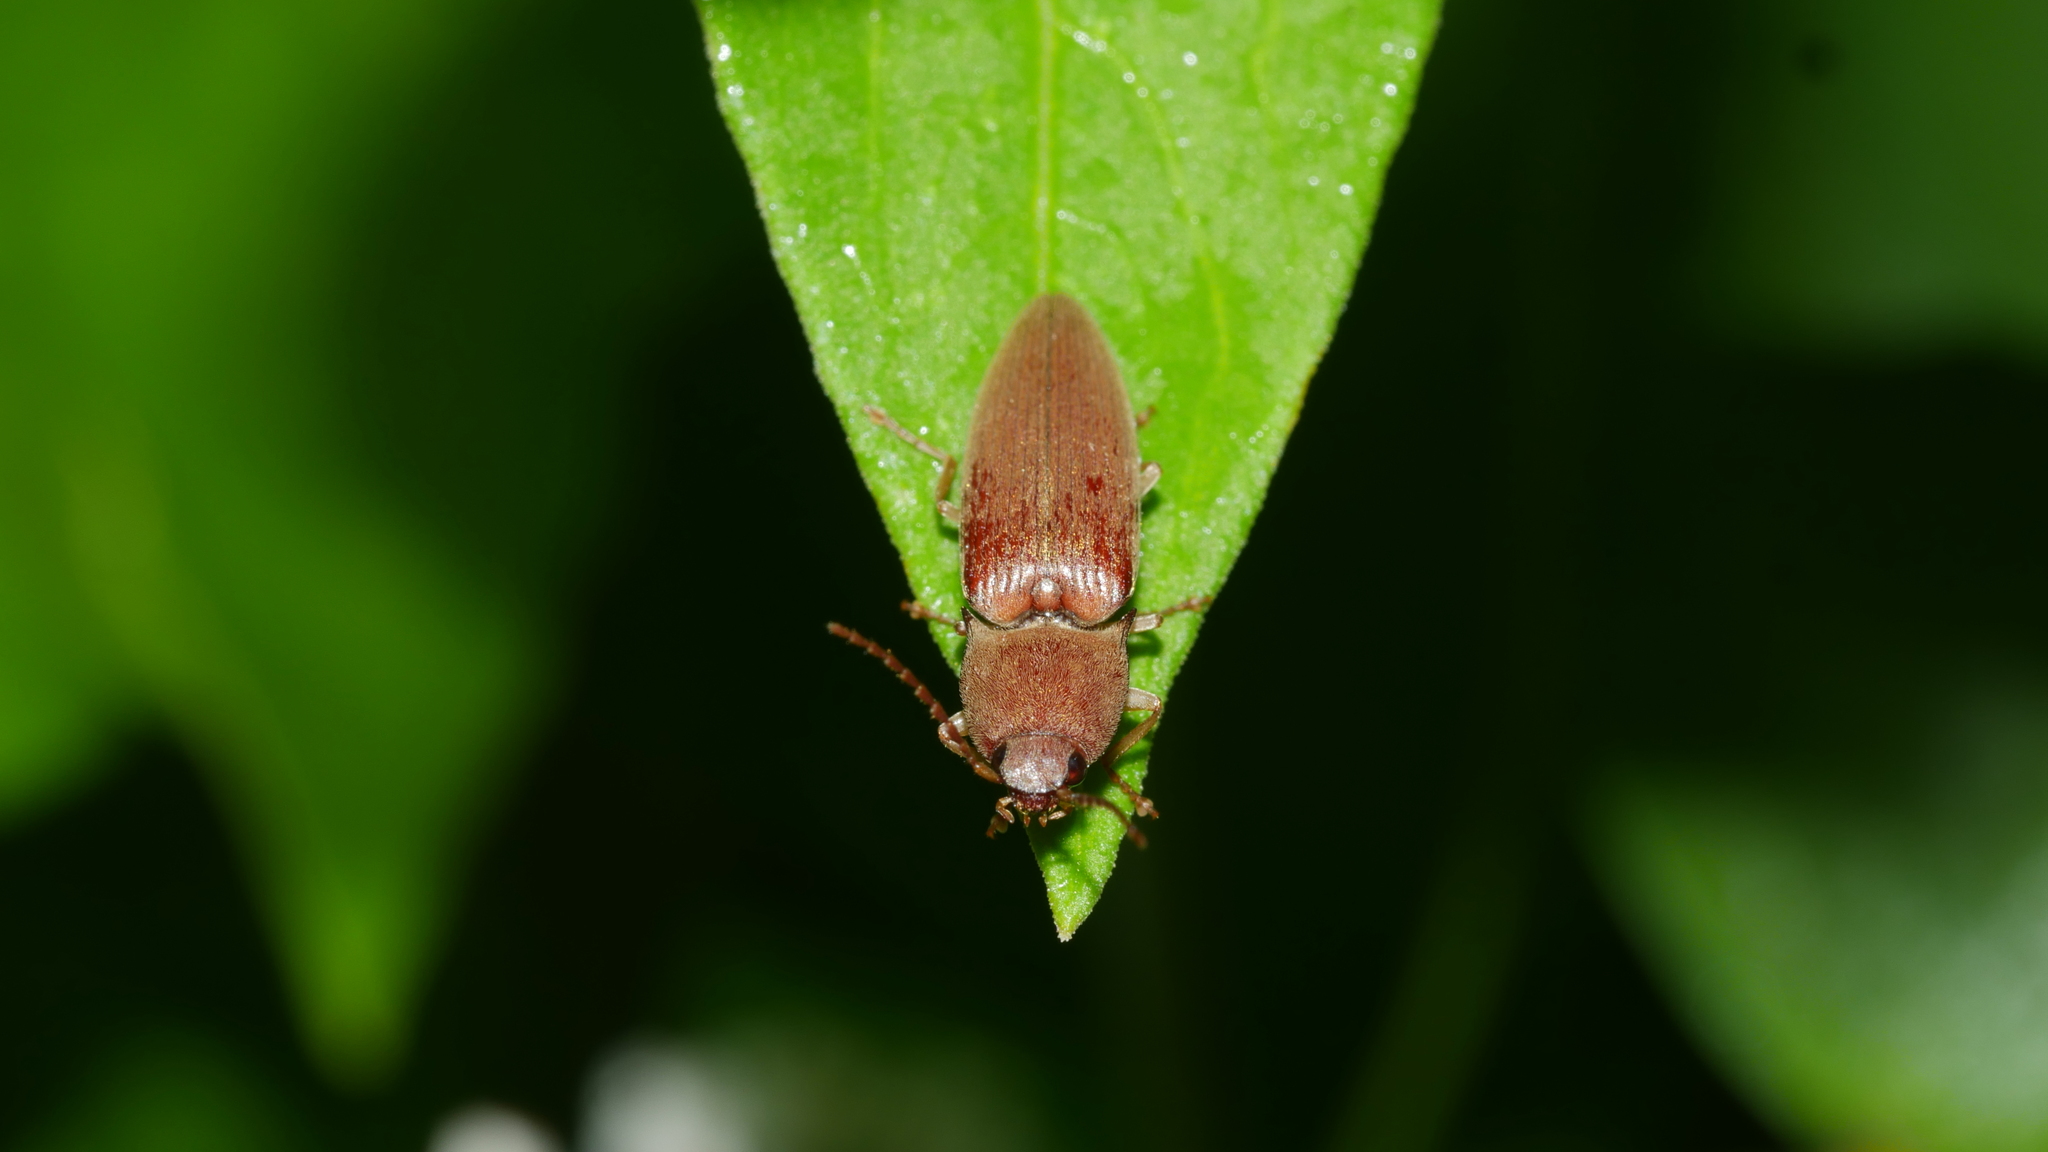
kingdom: Animalia
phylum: Arthropoda
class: Insecta
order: Coleoptera
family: Elateridae
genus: Monocrepidius
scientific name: Monocrepidius lividus
